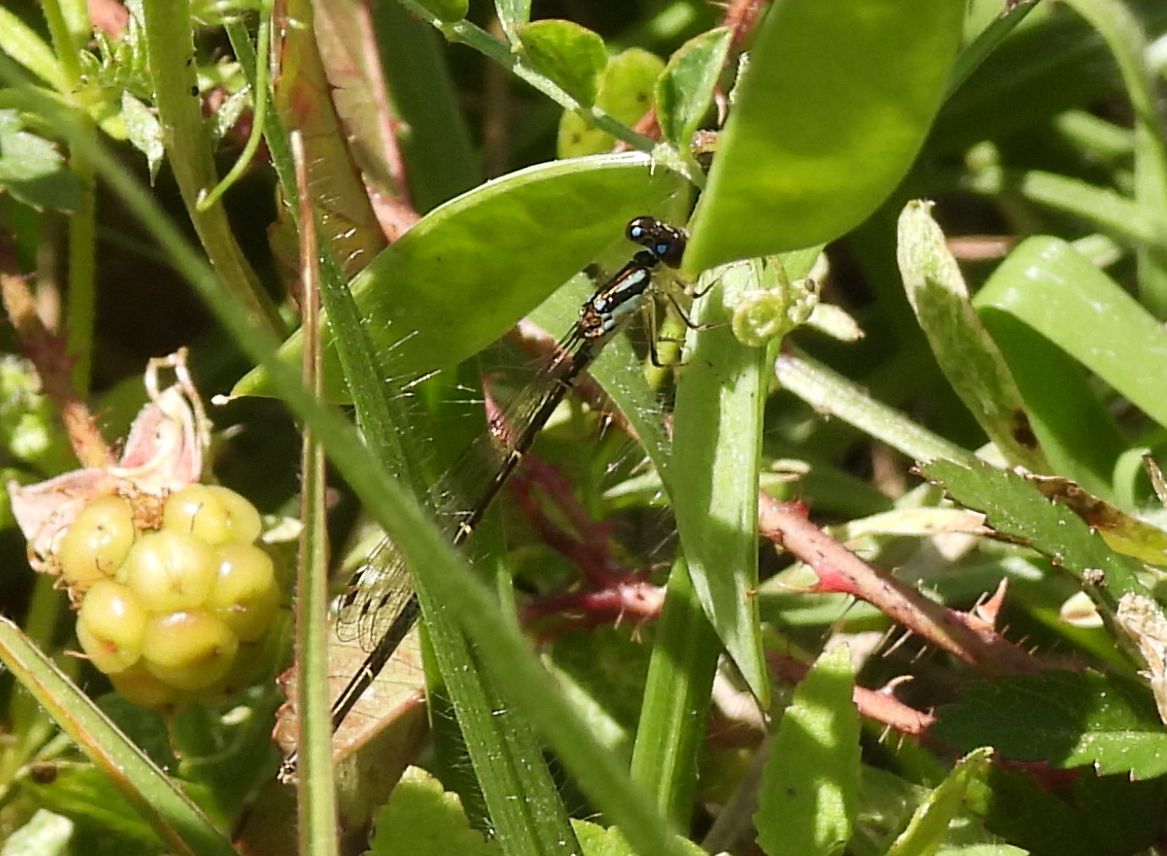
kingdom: Animalia
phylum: Arthropoda
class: Insecta
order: Odonata
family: Coenagrionidae
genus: Ischnura
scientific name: Ischnura posita
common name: Fragile forktail
